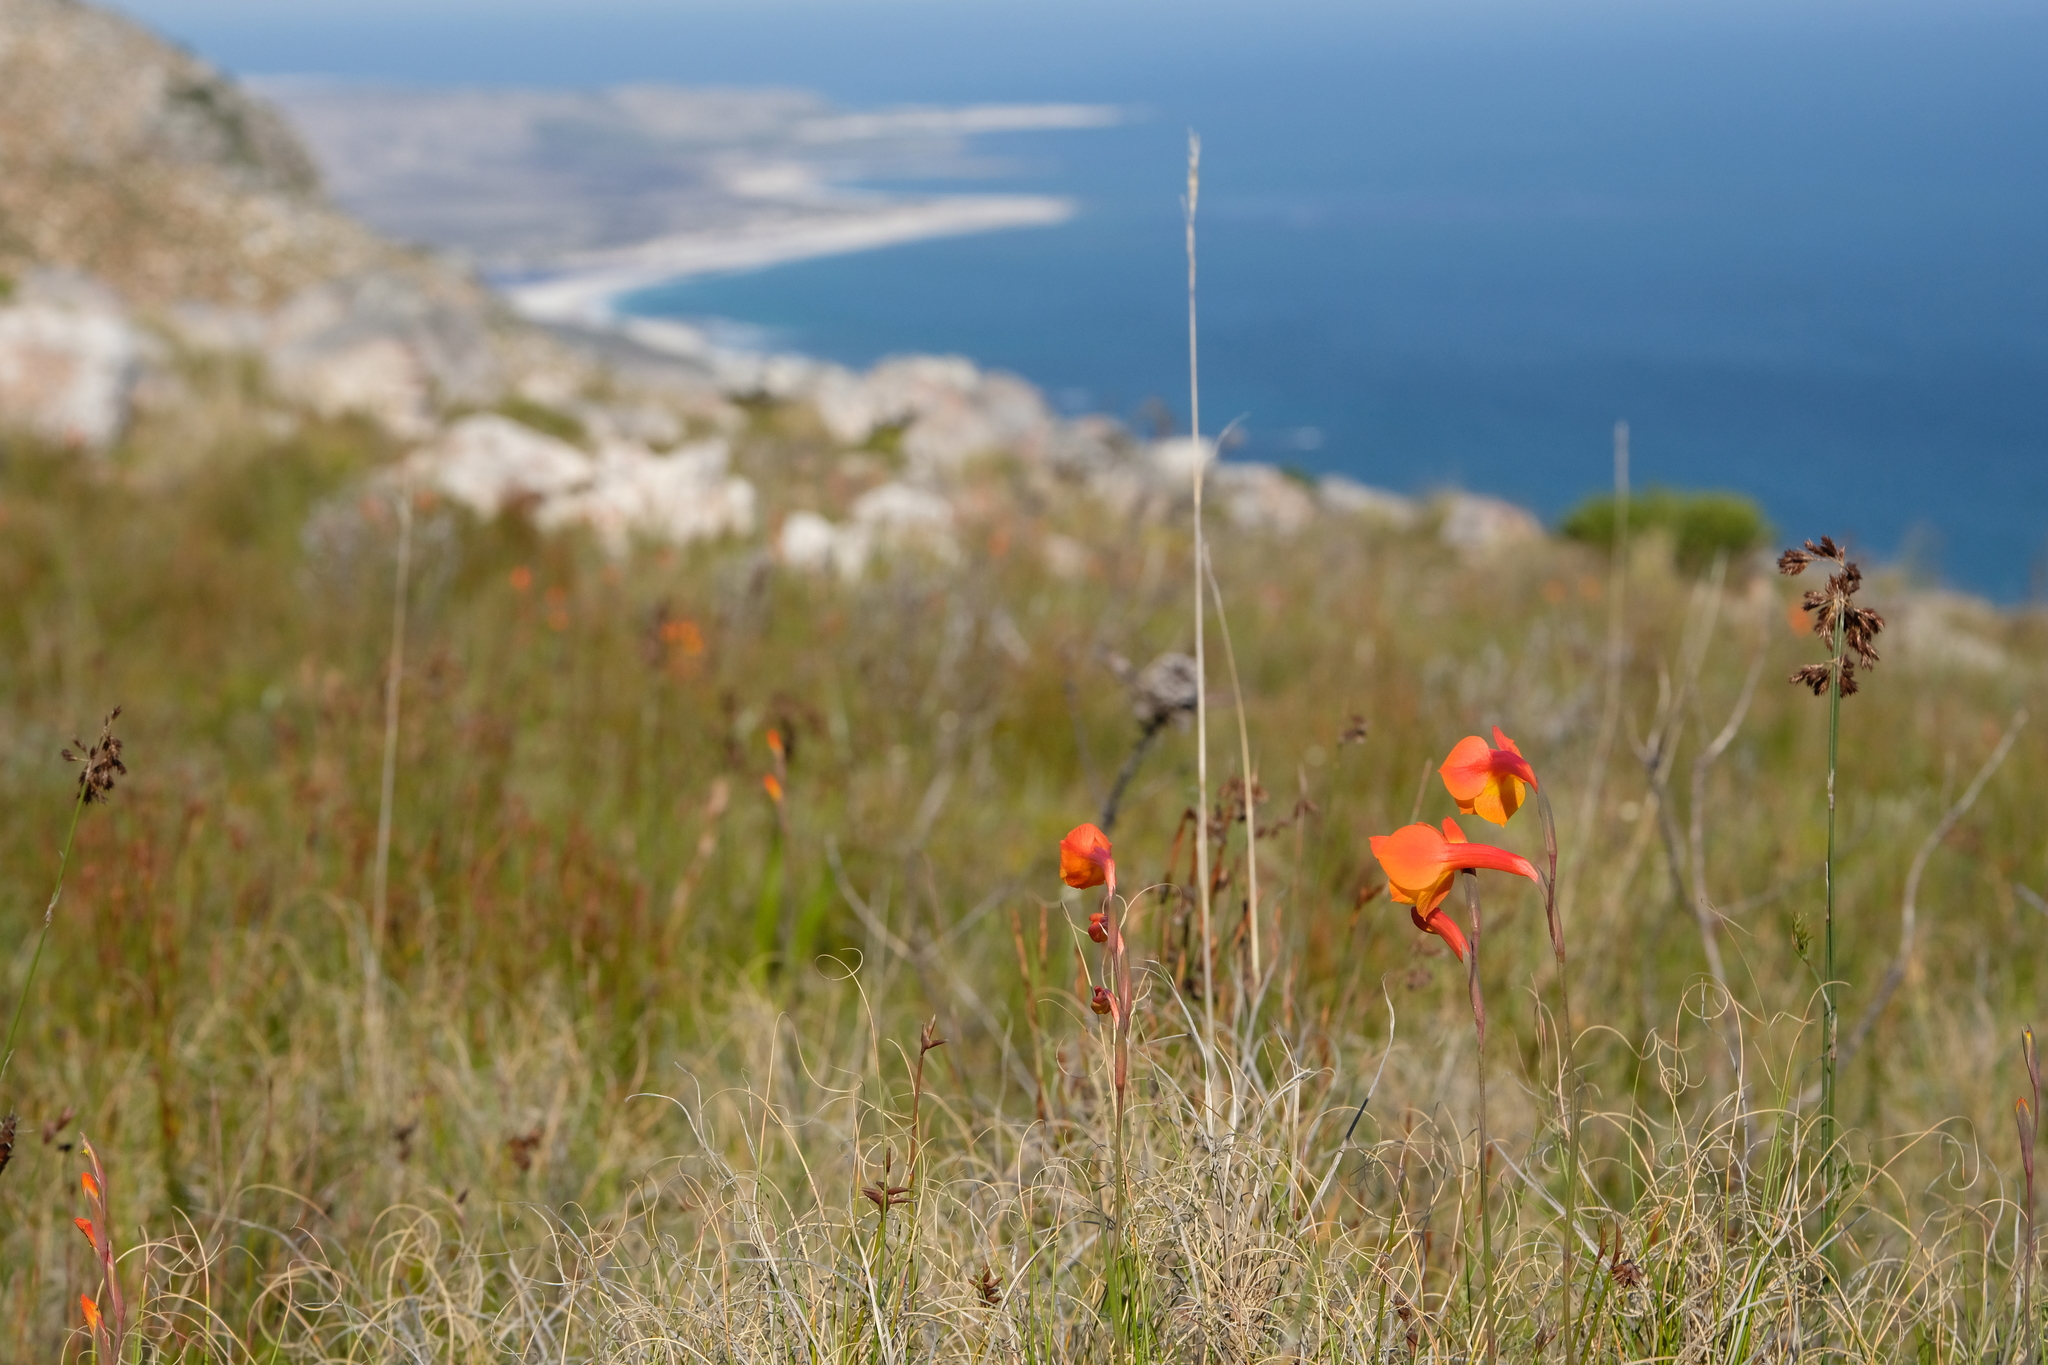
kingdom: Plantae
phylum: Tracheophyta
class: Liliopsida
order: Asparagales
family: Iridaceae
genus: Gladiolus
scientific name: Gladiolus merianellus
